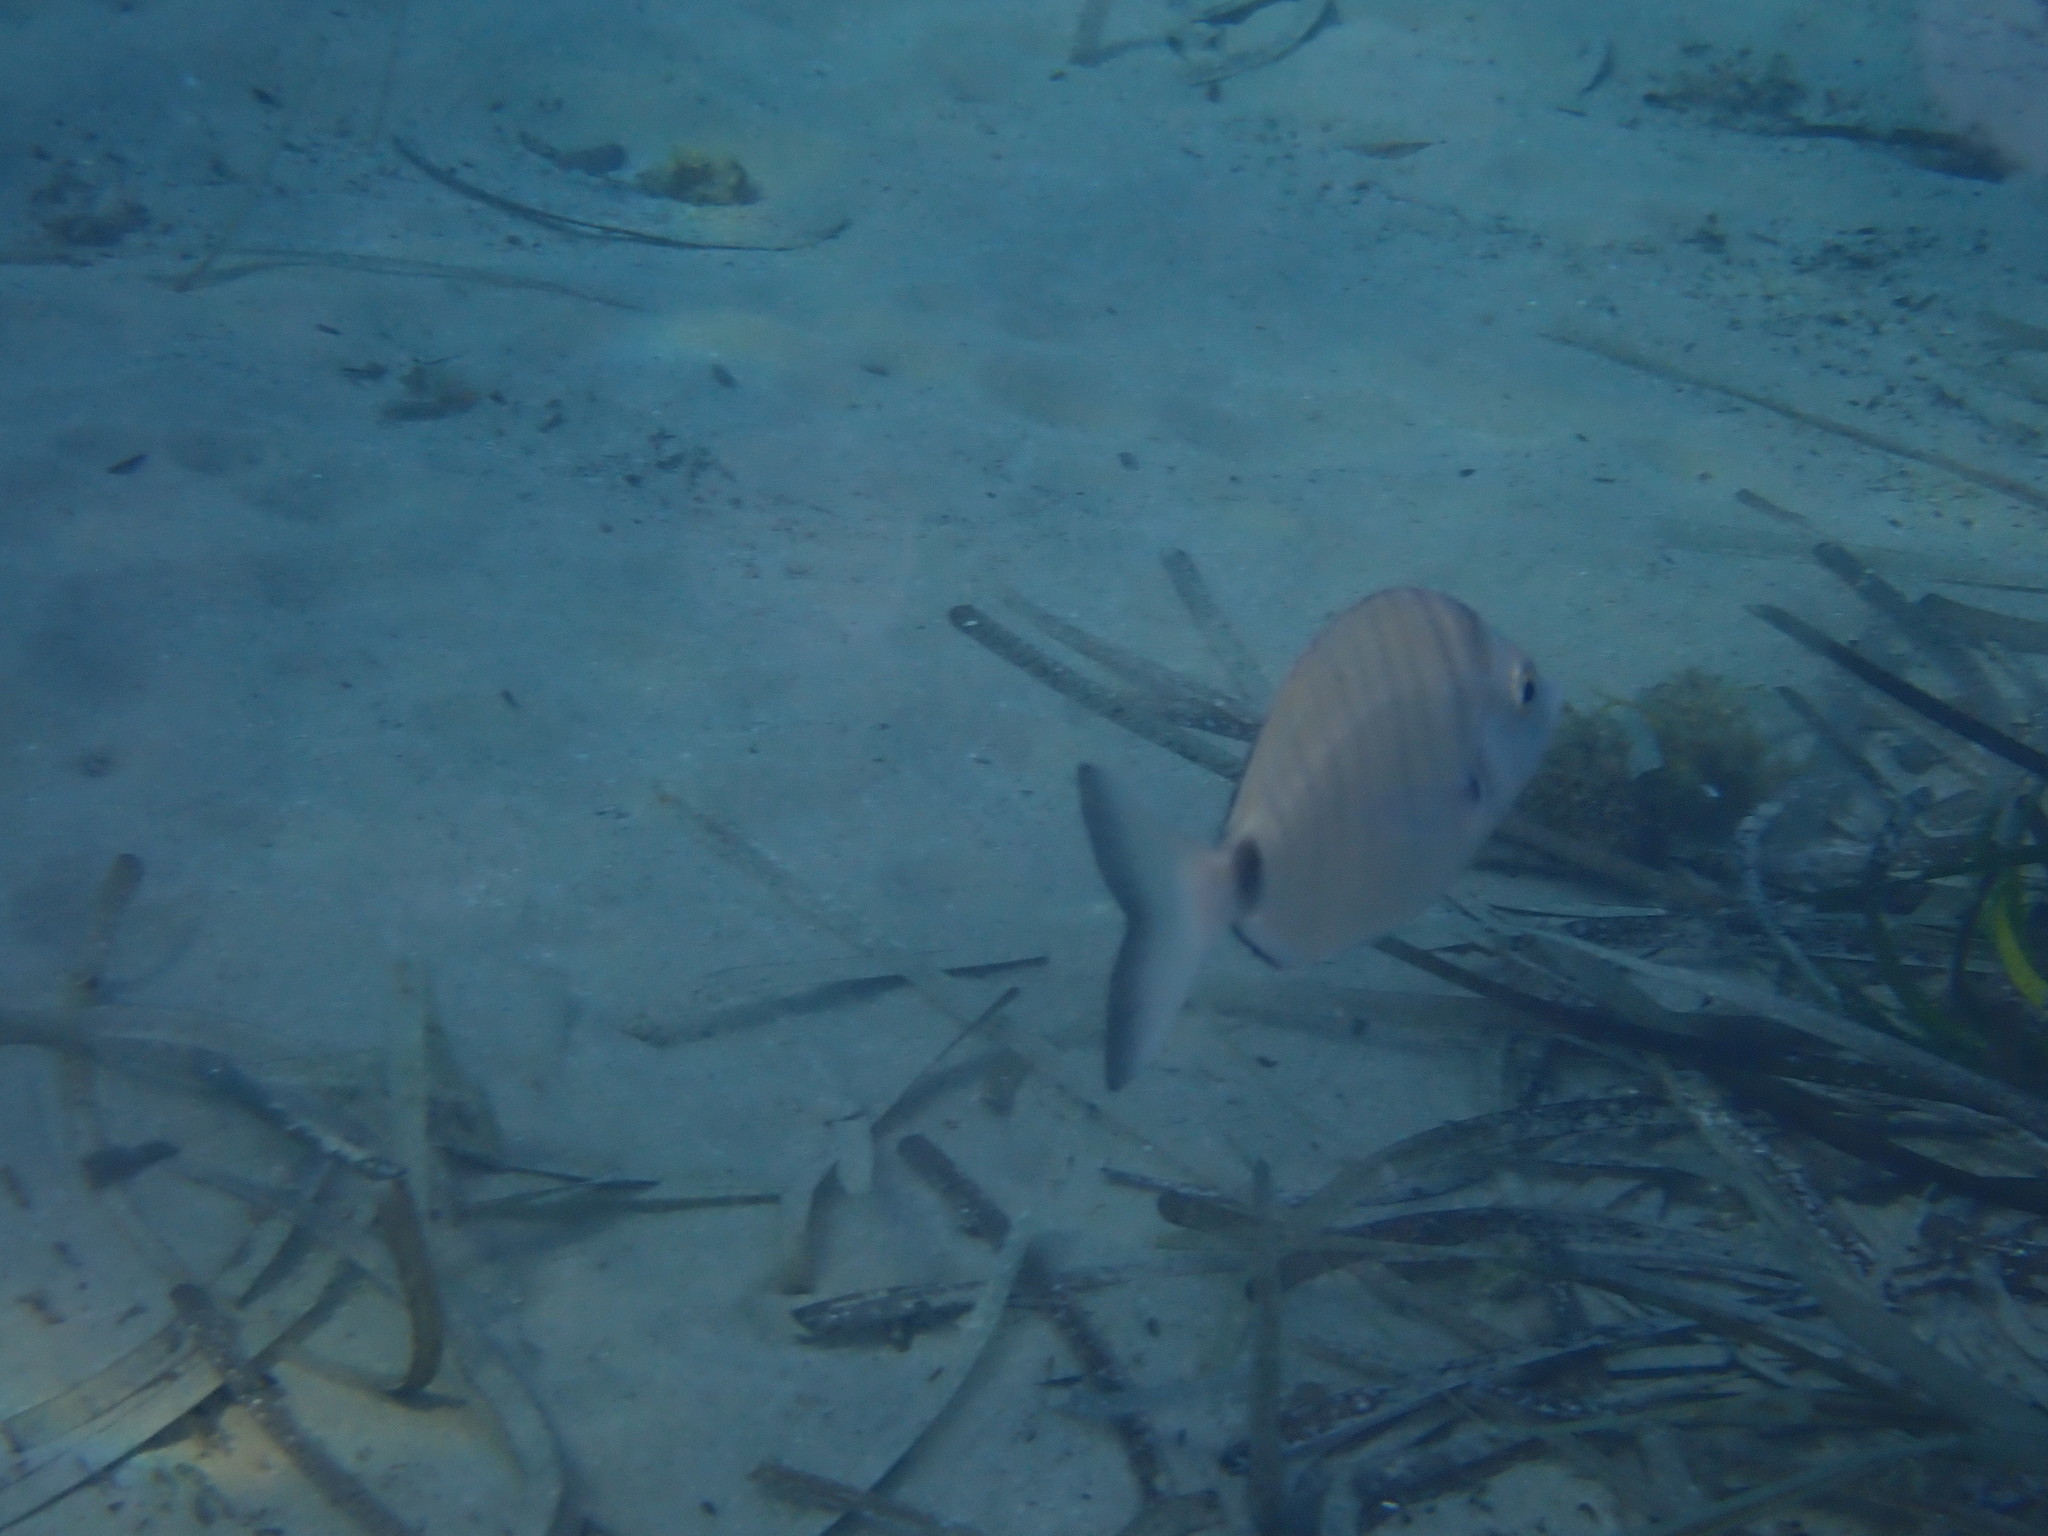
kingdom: Animalia
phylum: Chordata
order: Perciformes
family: Sparidae
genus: Diplodus
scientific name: Diplodus puntazzo
